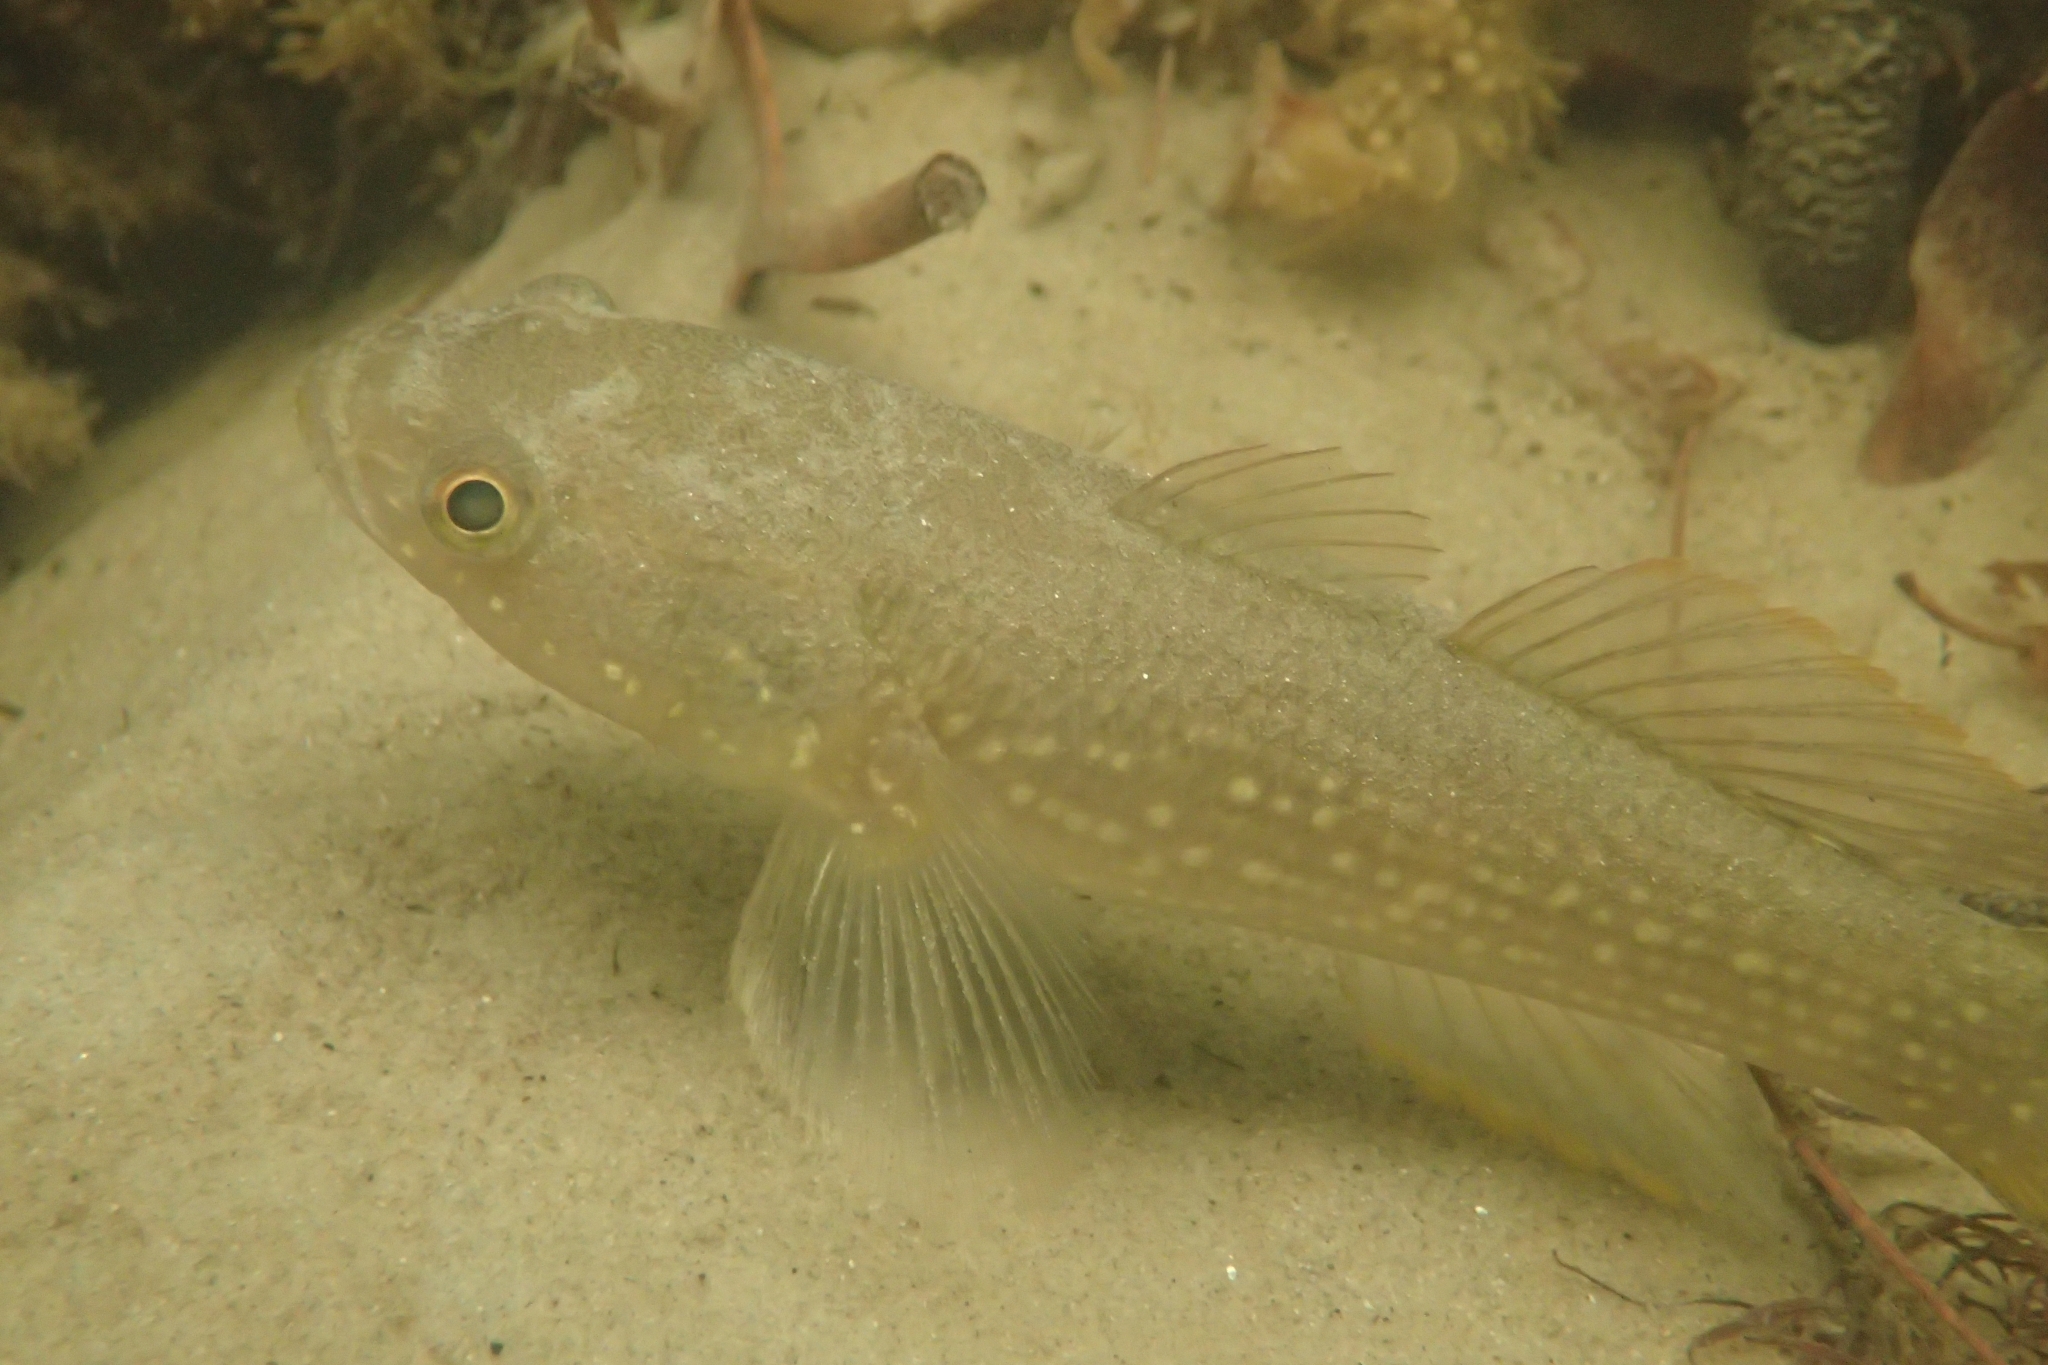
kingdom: Animalia
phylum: Chordata
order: Perciformes
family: Eleotridae
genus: Ophiocara
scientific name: Ophiocara porocephala
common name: Spangled gudgeon
